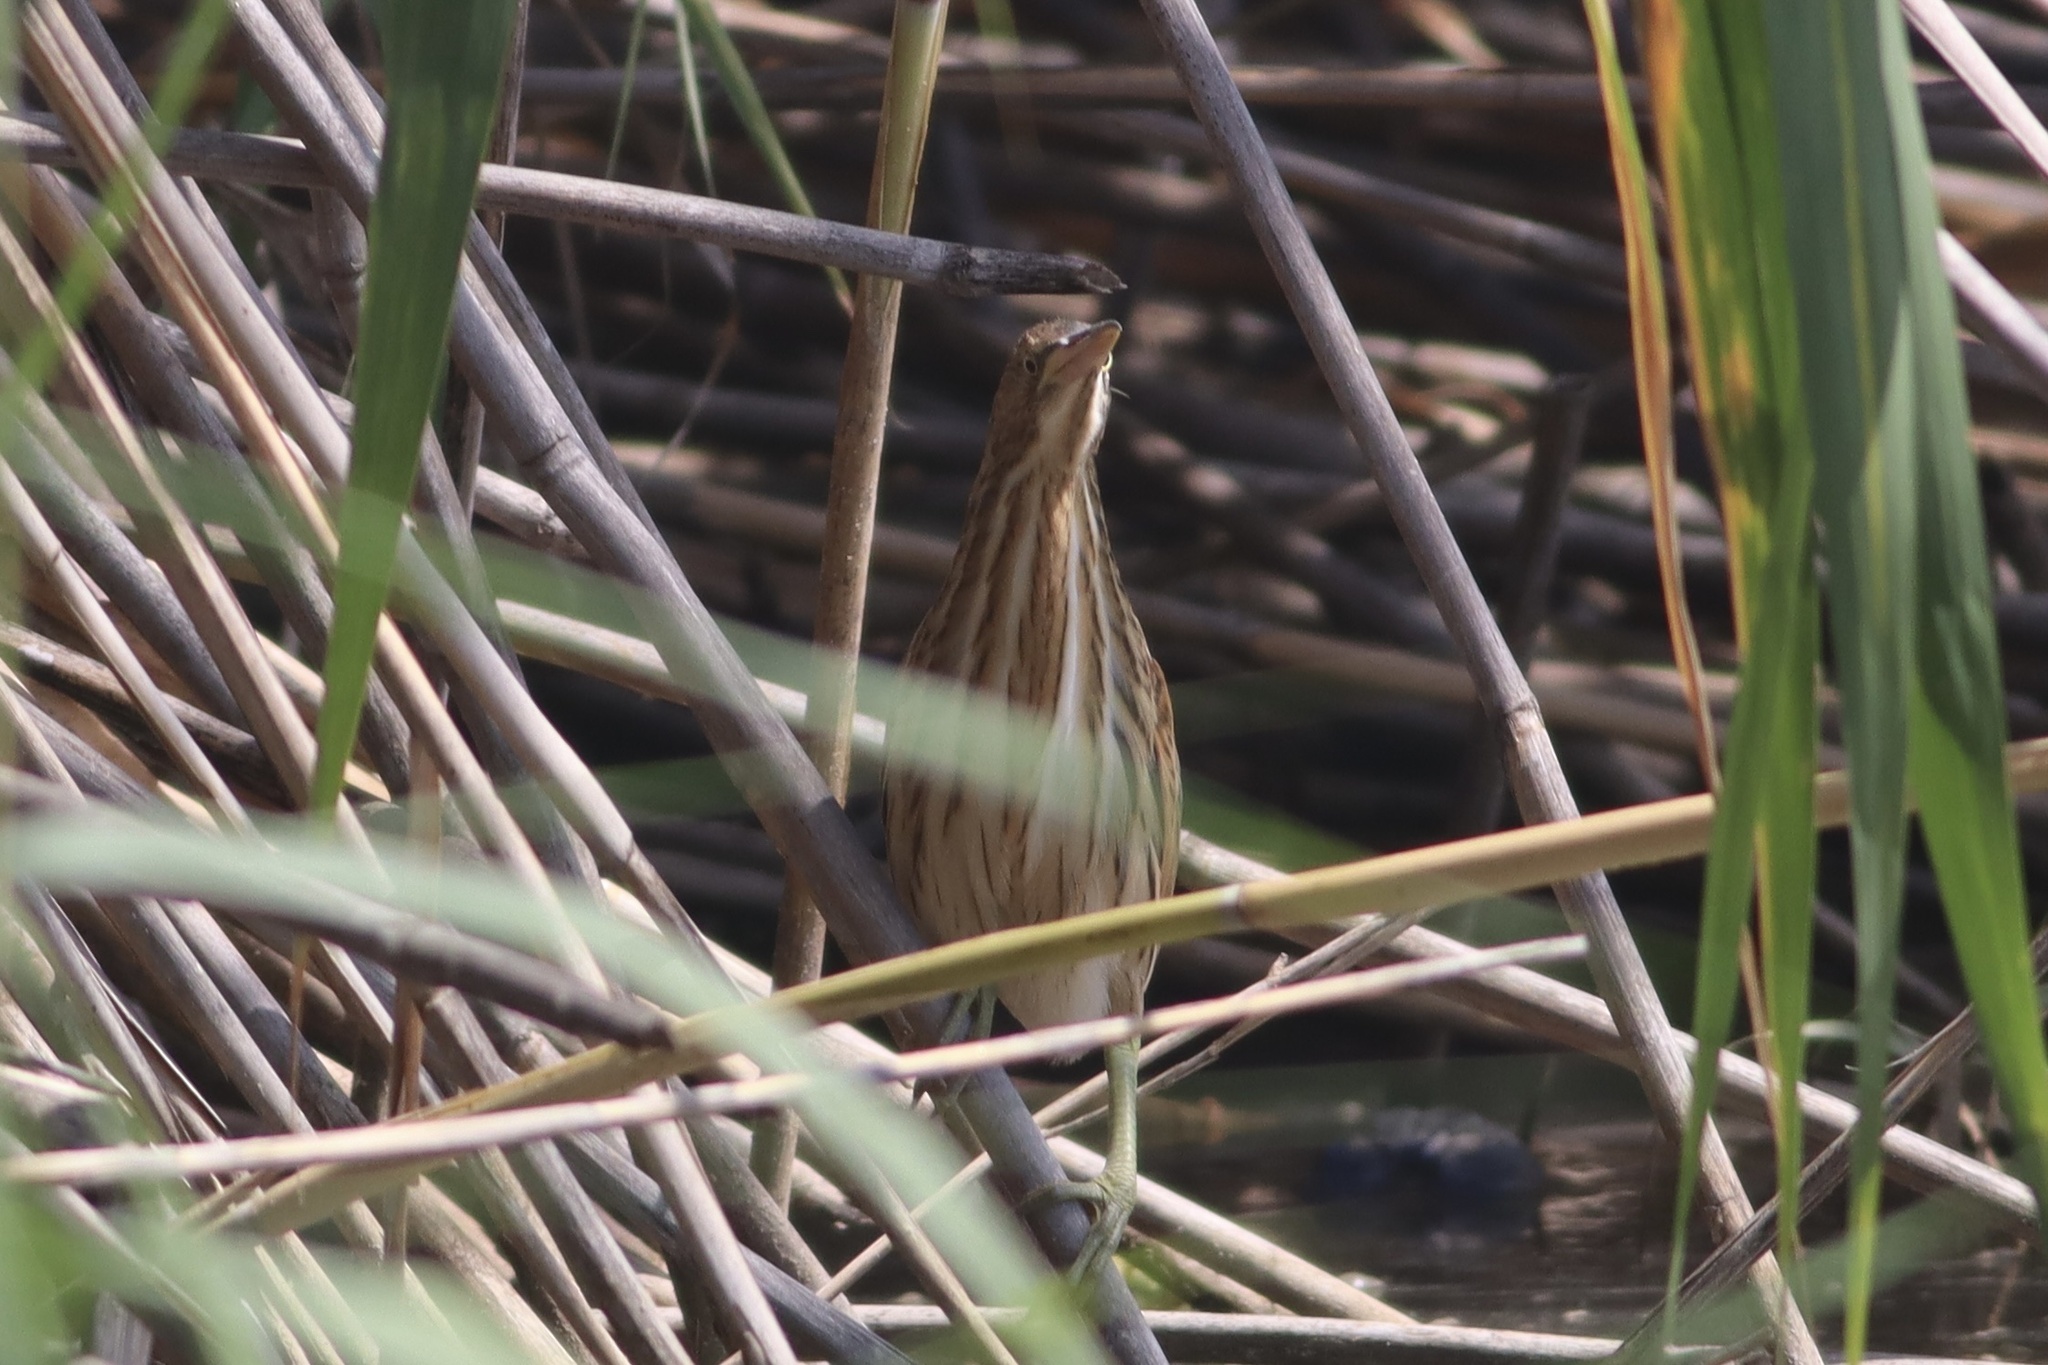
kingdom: Animalia
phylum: Chordata
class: Aves
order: Pelecaniformes
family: Ardeidae
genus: Ixobrychus
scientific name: Ixobrychus minutus
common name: Little bittern
